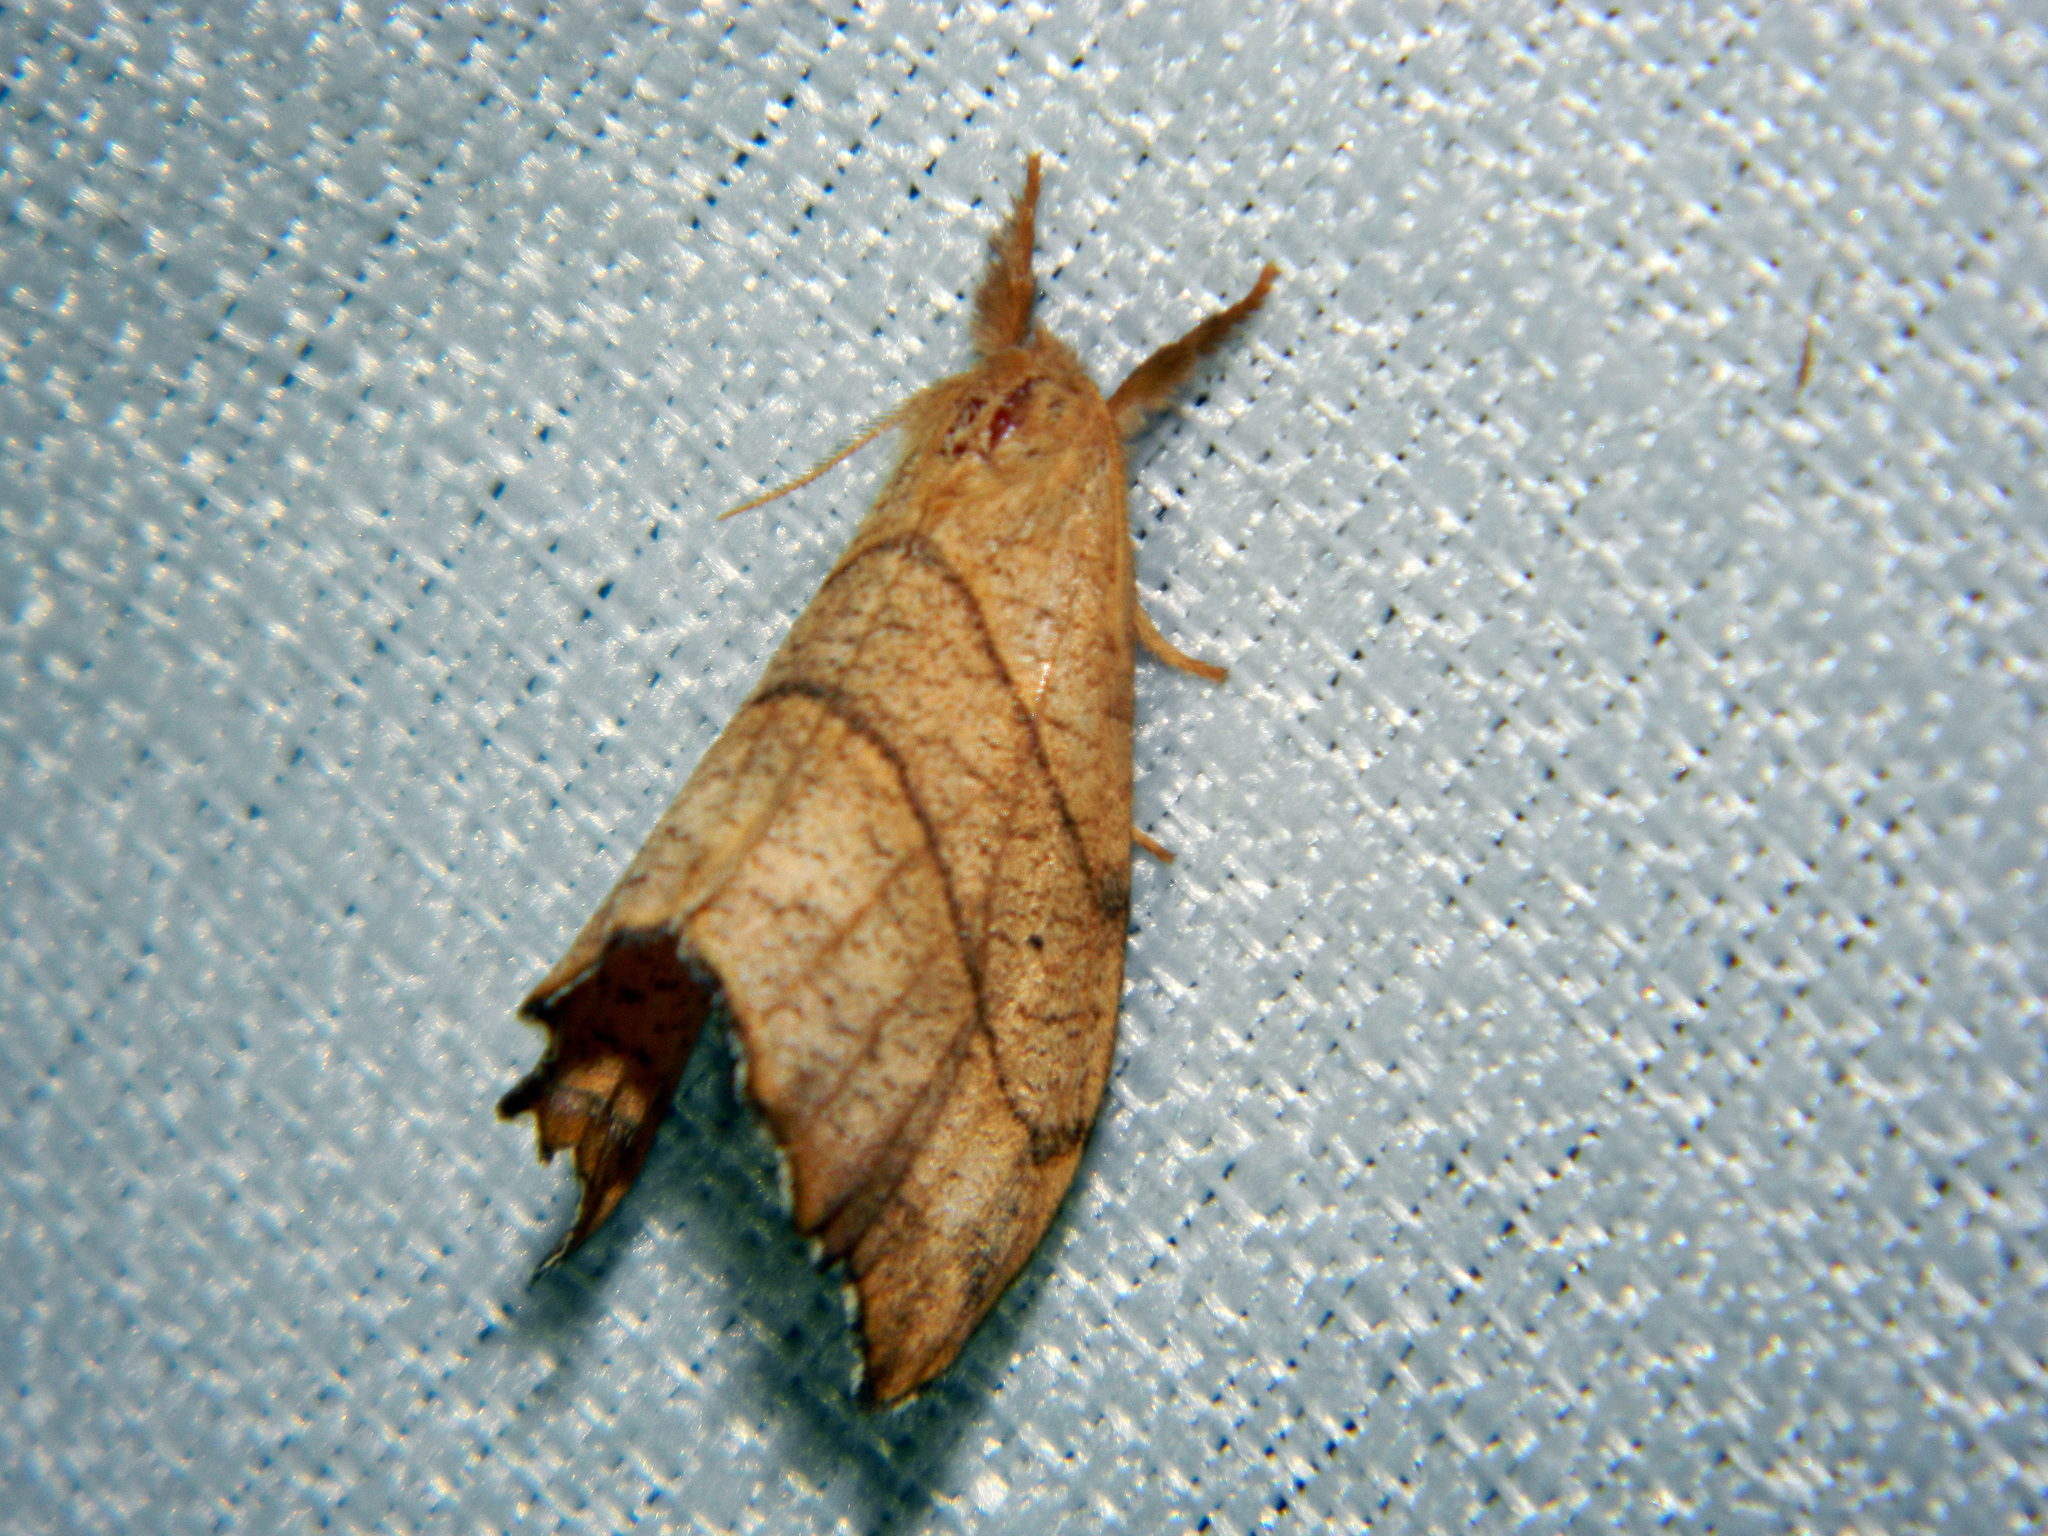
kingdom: Animalia
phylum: Arthropoda
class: Insecta
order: Lepidoptera
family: Drepanidae
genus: Falcaria
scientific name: Falcaria bilineata
